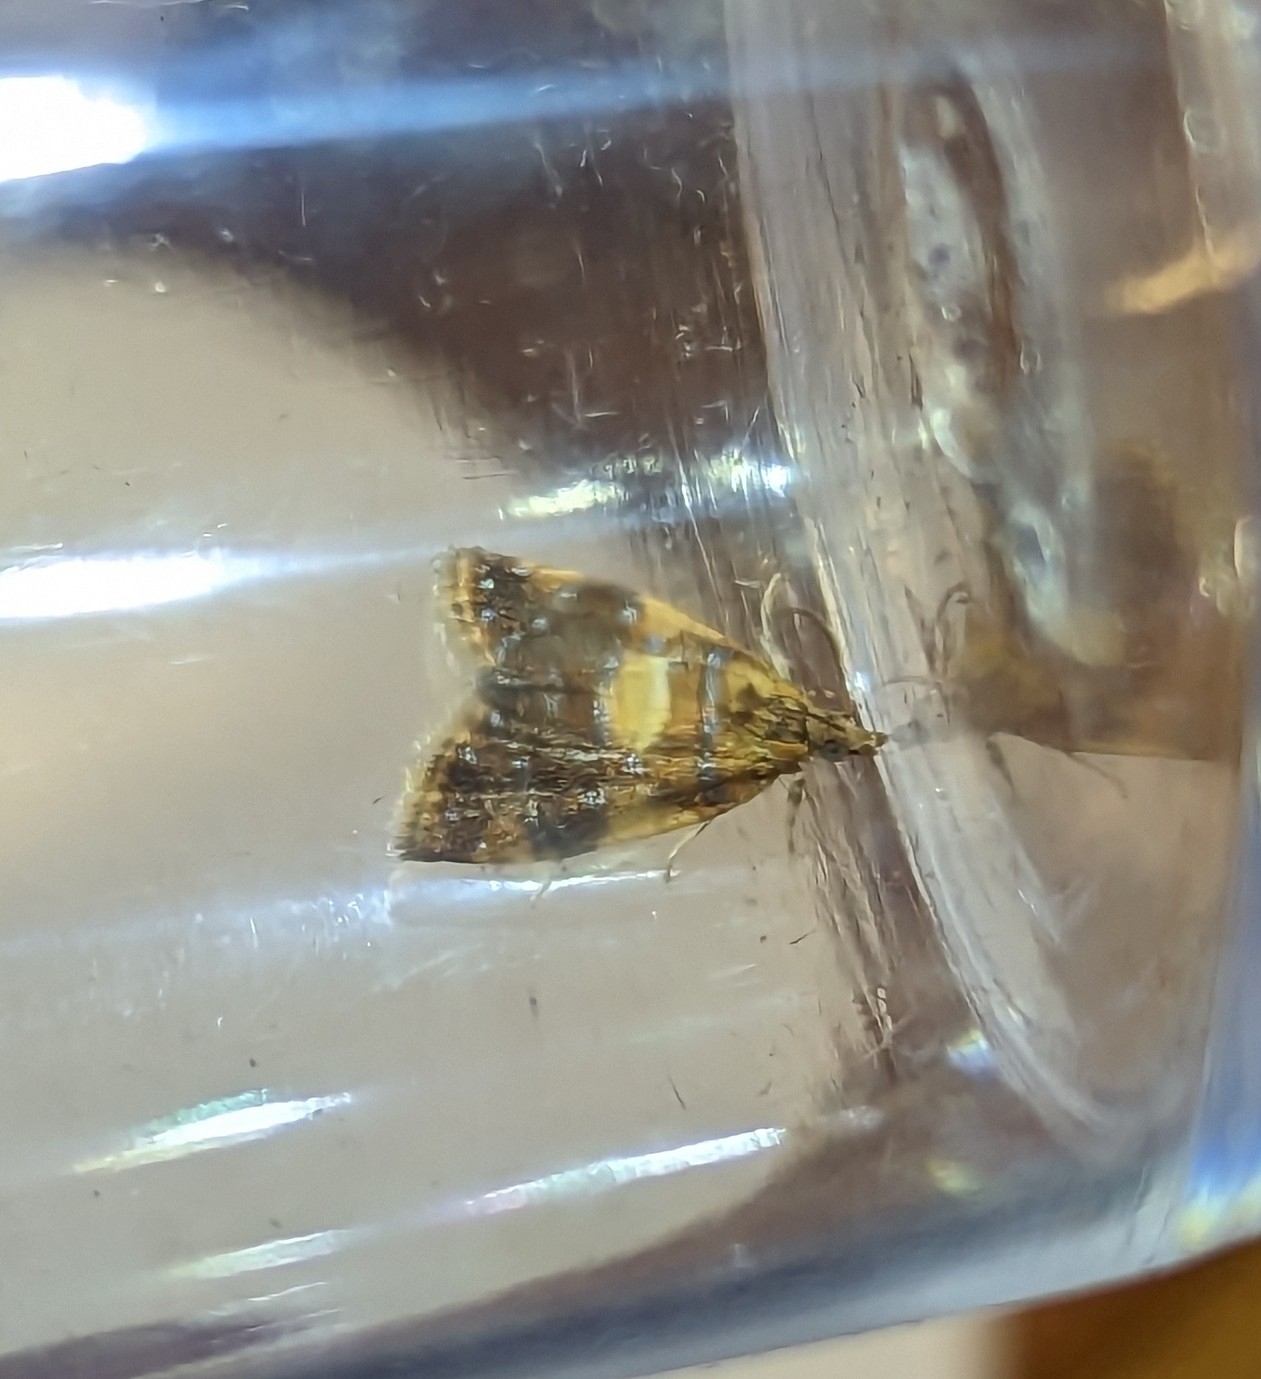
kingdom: Animalia
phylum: Arthropoda
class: Insecta
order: Lepidoptera
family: Tortricidae
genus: Pseudargyrotoza
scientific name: Pseudargyrotoza conwagana
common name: Yellow-spot twist
